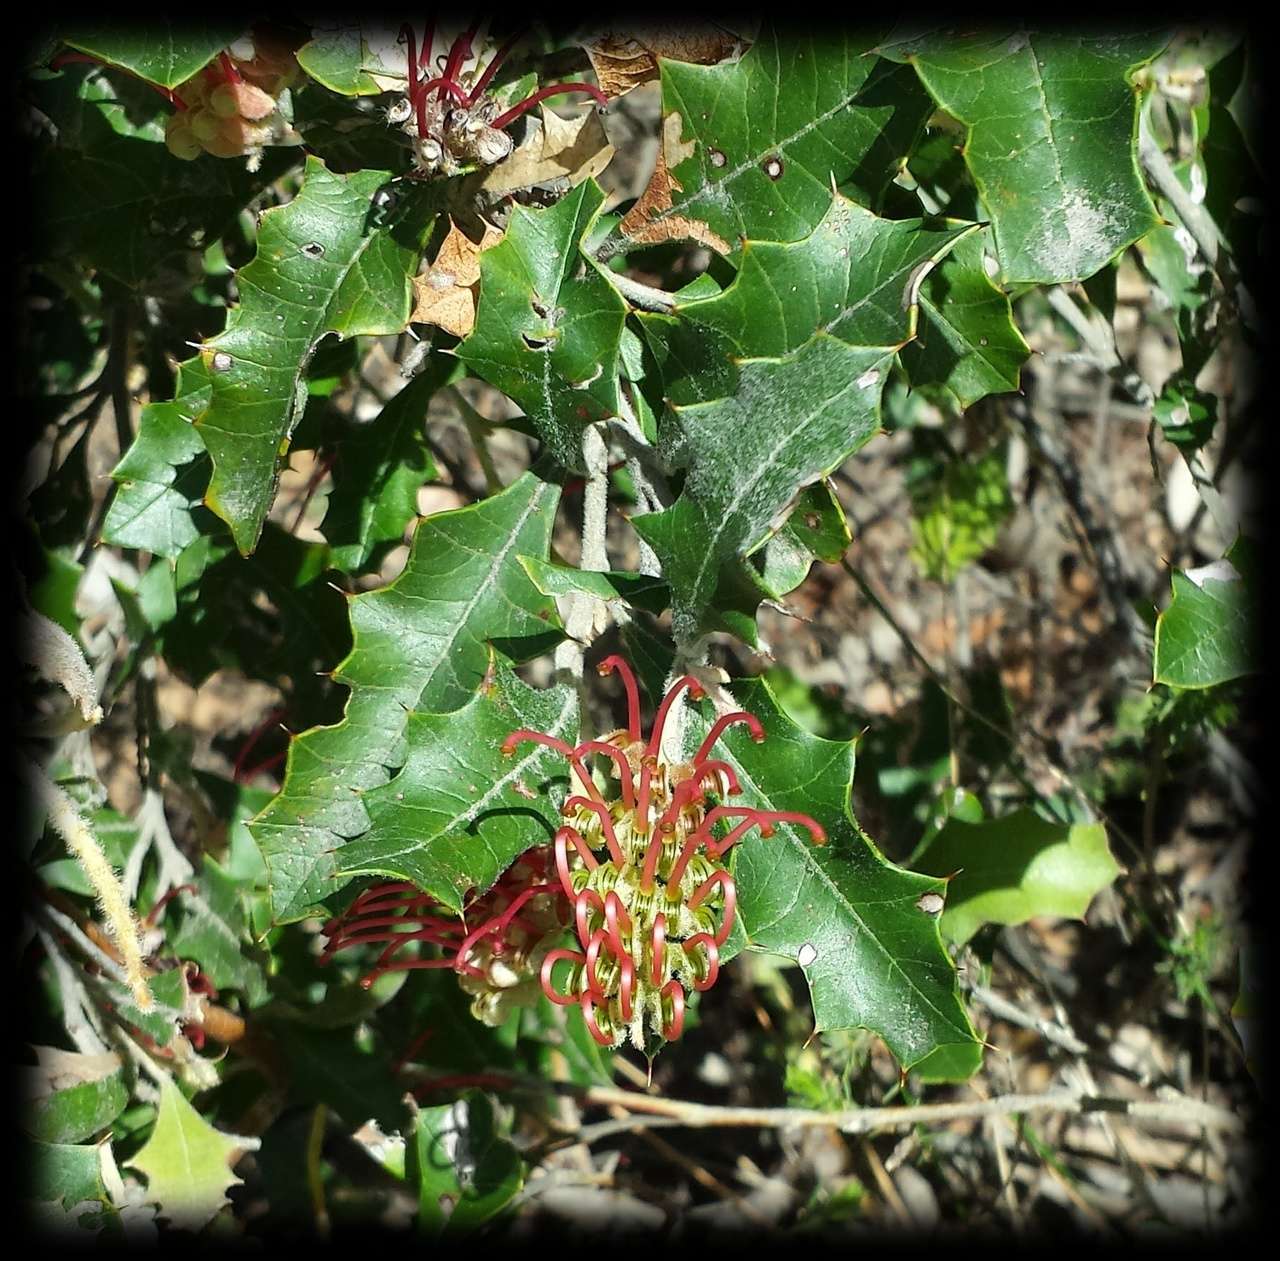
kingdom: Plantae
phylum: Tracheophyta
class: Magnoliopsida
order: Proteales
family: Proteaceae
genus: Grevillea
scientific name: Grevillea aquifolium
